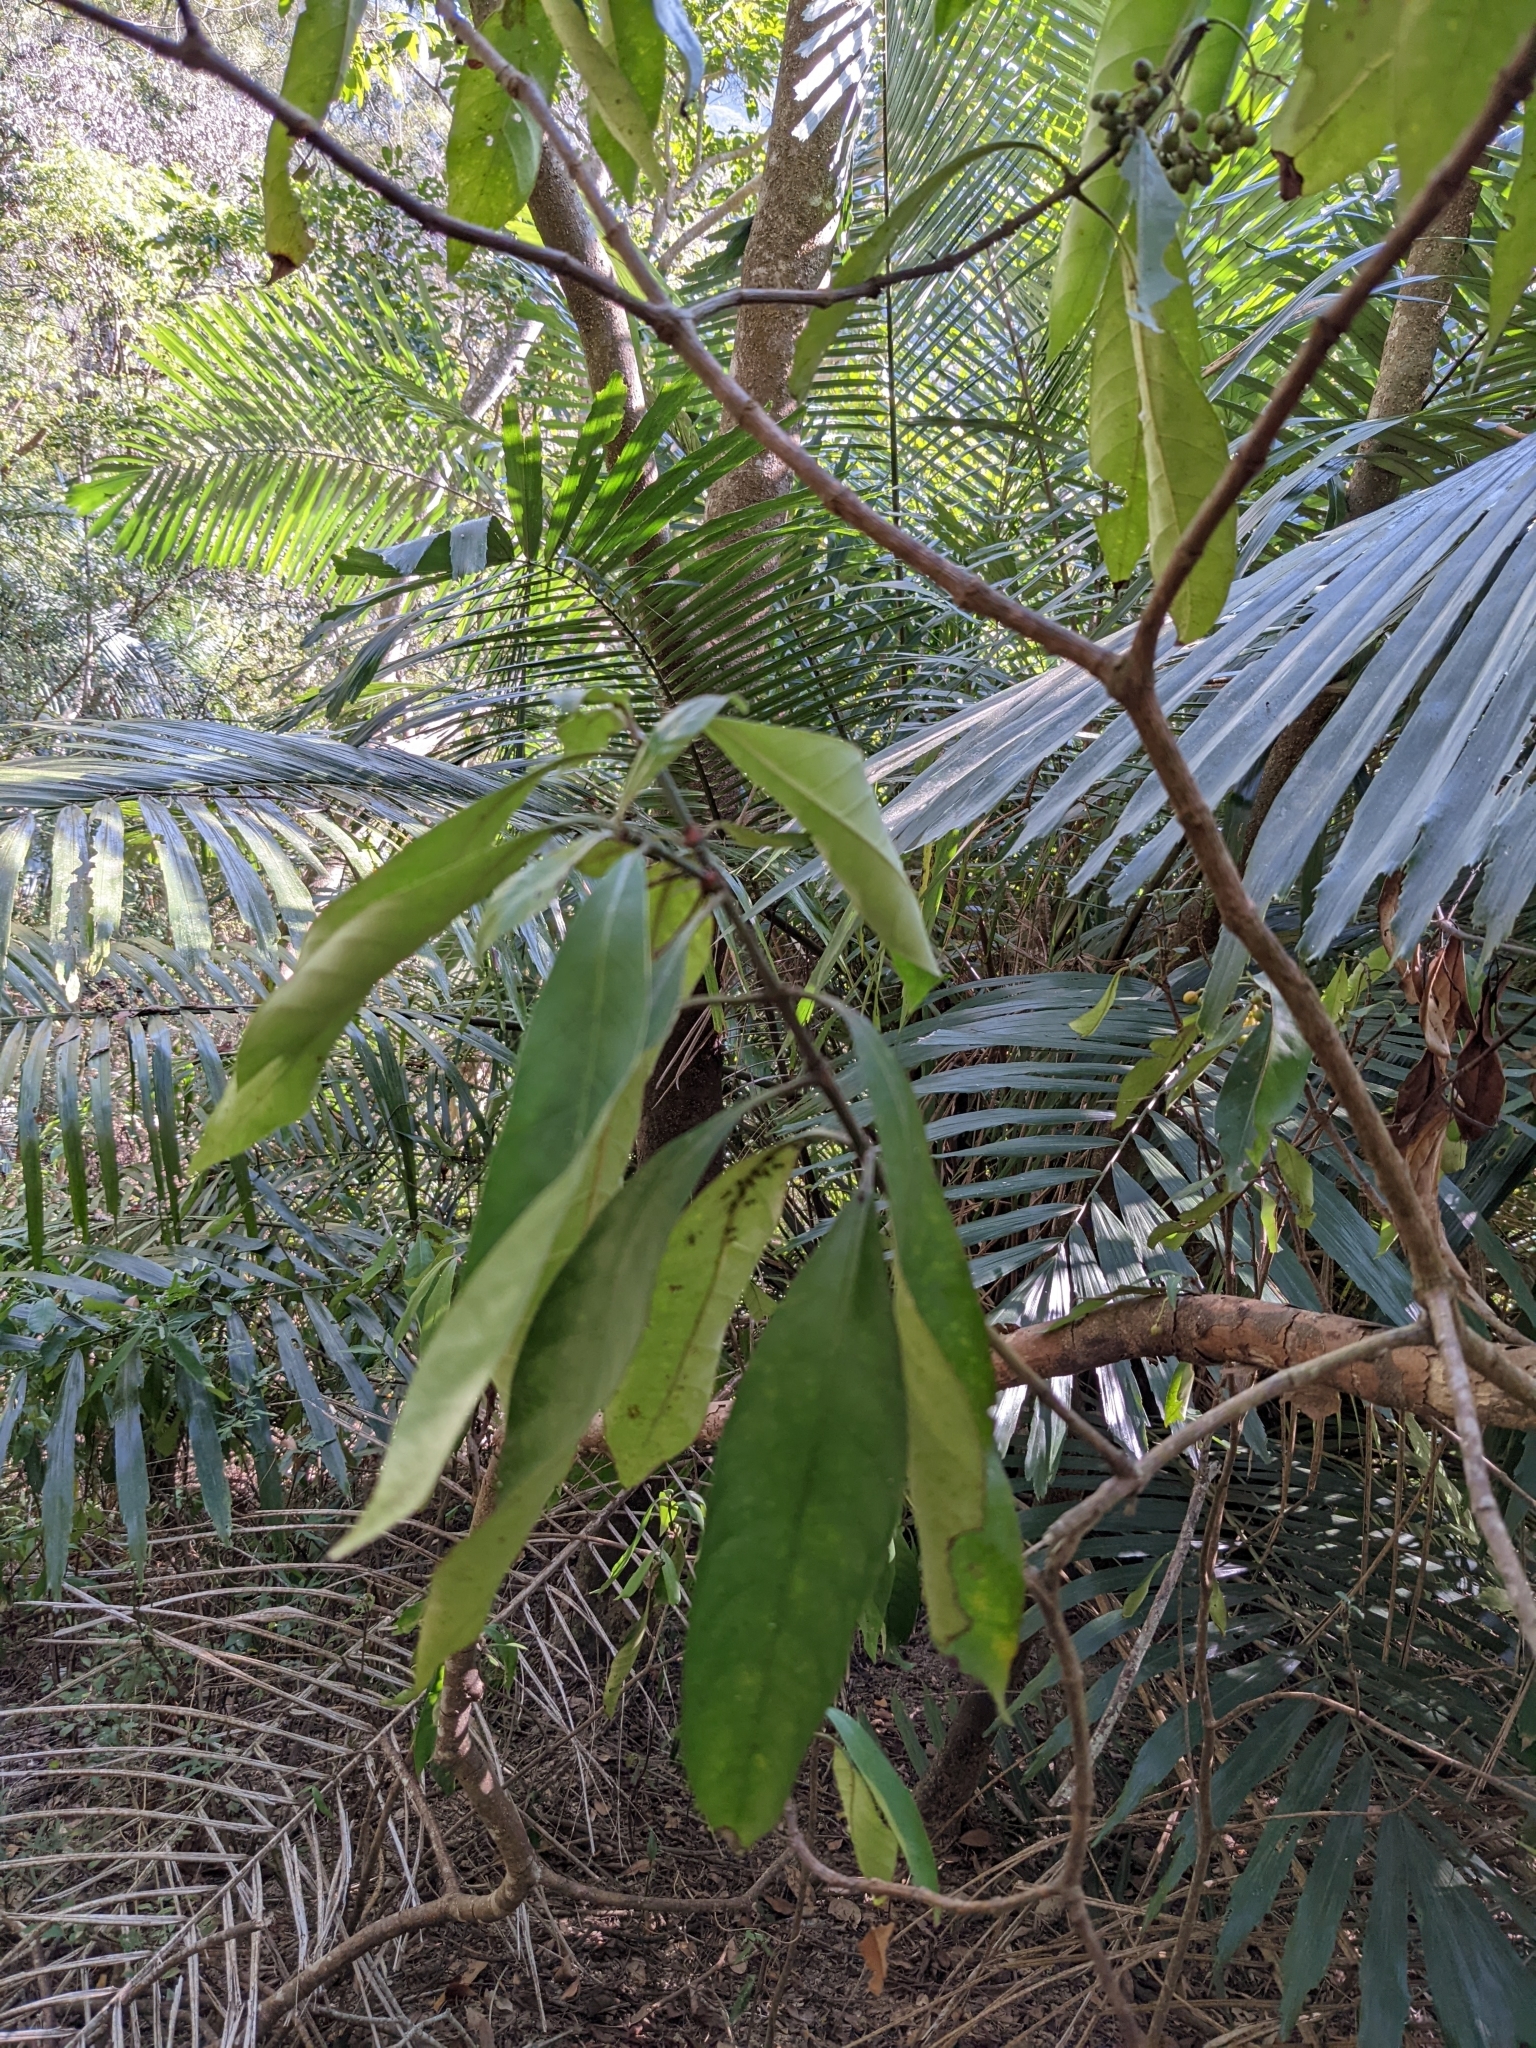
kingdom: Plantae
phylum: Tracheophyta
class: Magnoliopsida
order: Gentianales
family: Rubiaceae
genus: Psychotria
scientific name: Psychotria asiatica
